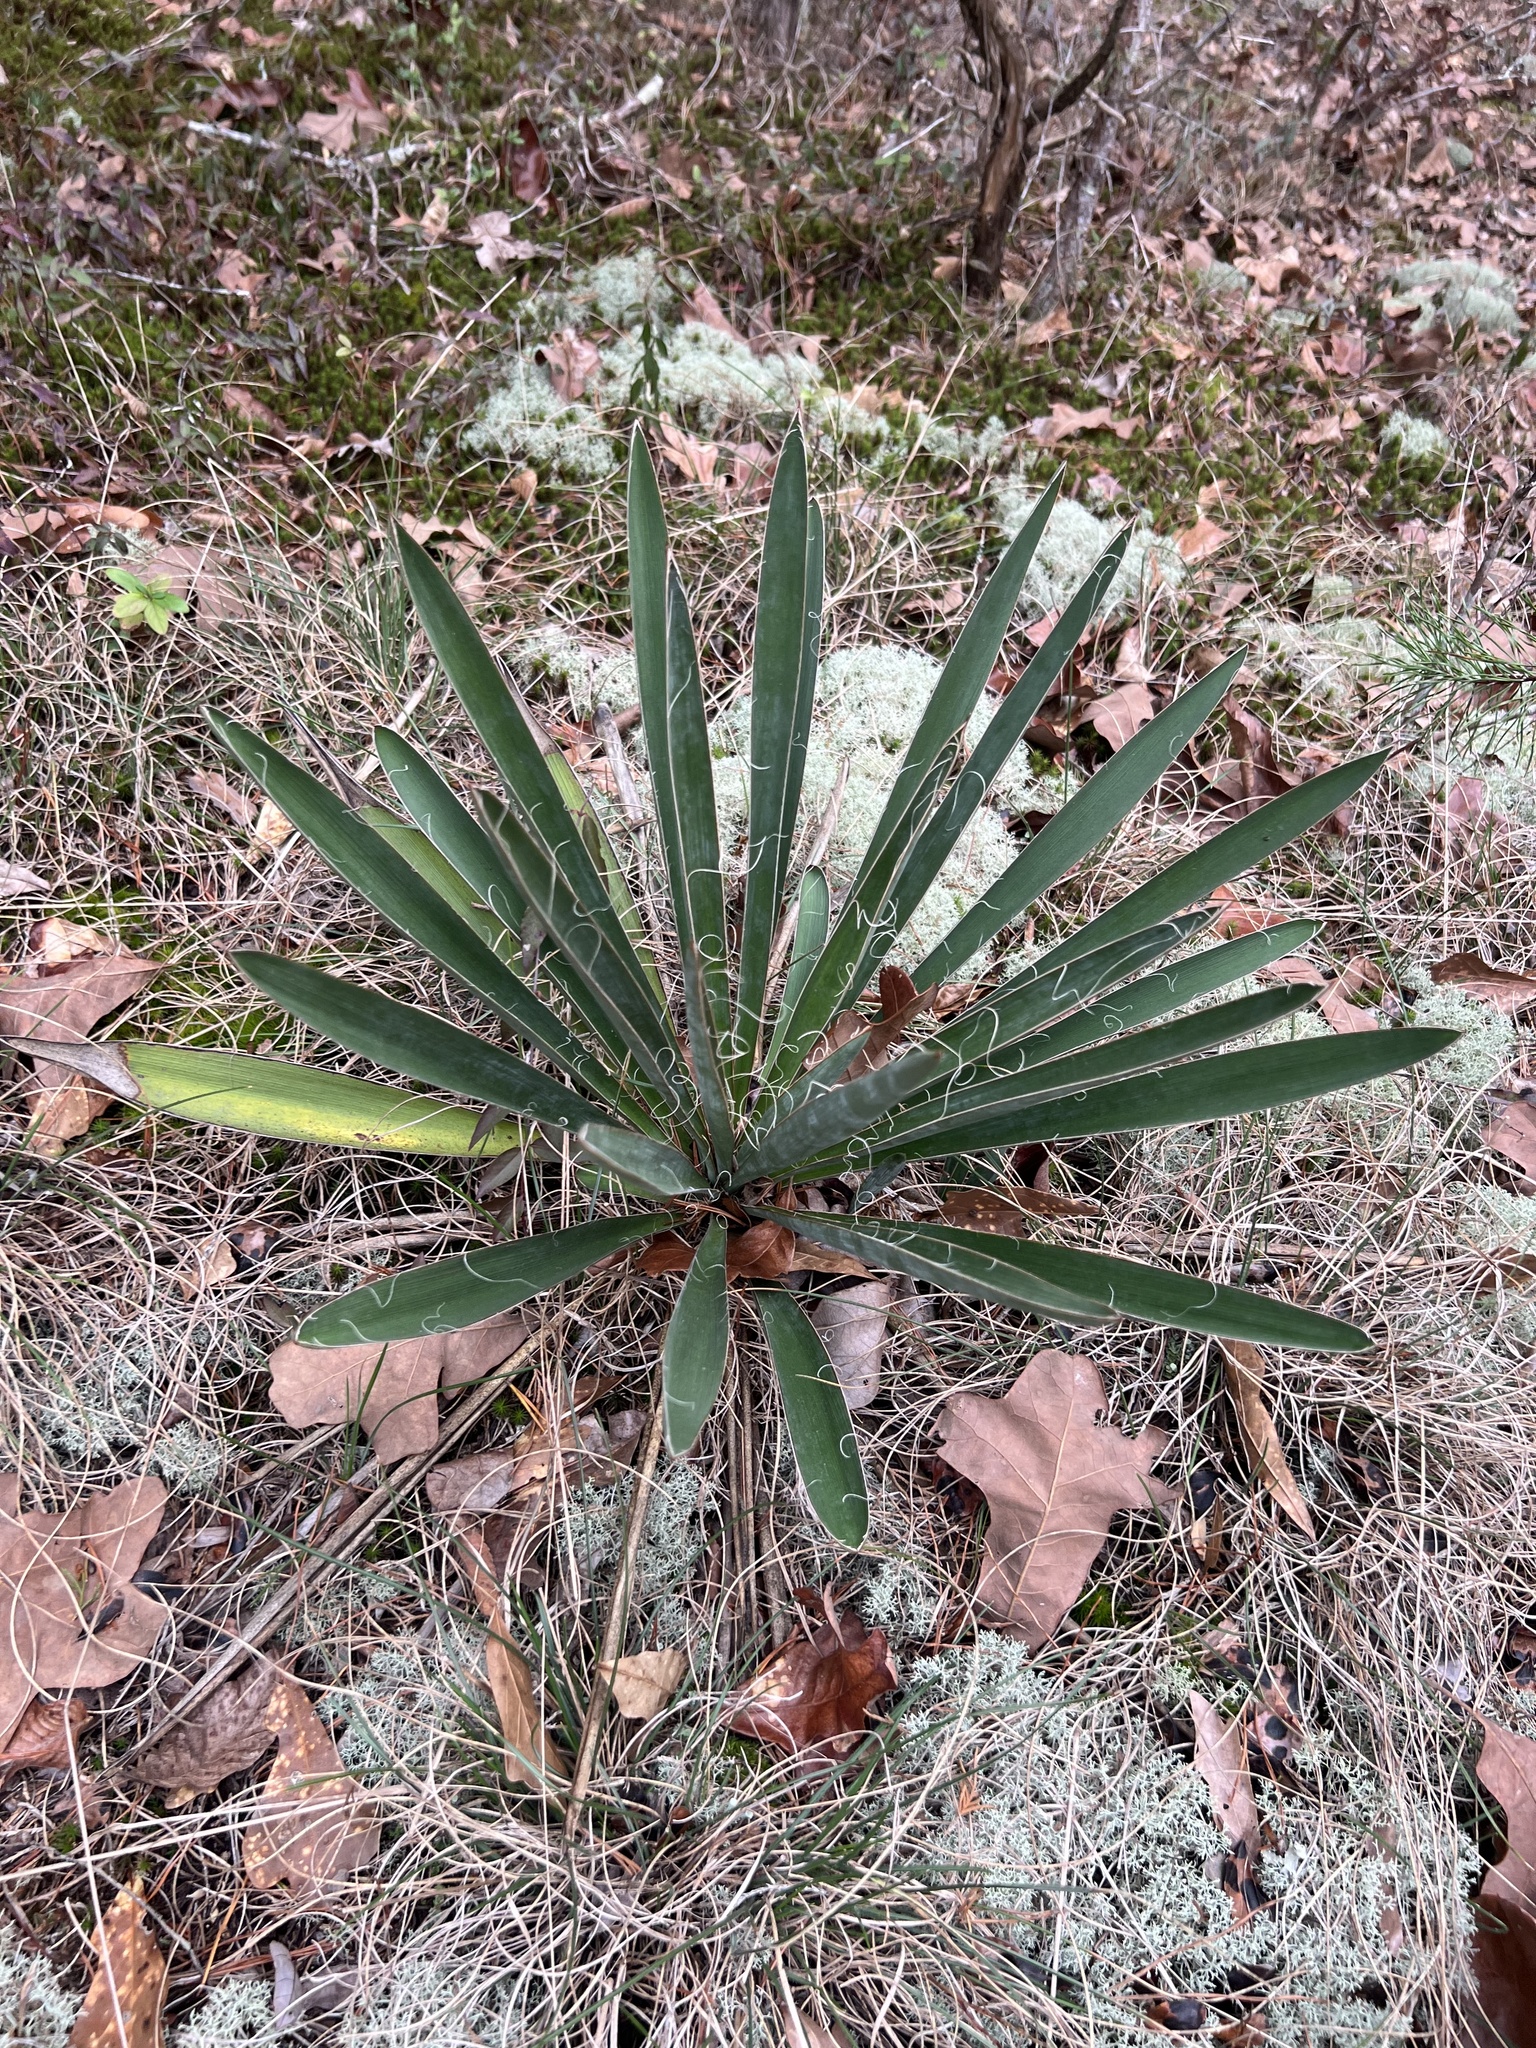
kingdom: Plantae
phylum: Tracheophyta
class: Liliopsida
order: Asparagales
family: Asparagaceae
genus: Yucca
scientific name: Yucca filamentosa
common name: Adam's-needle
